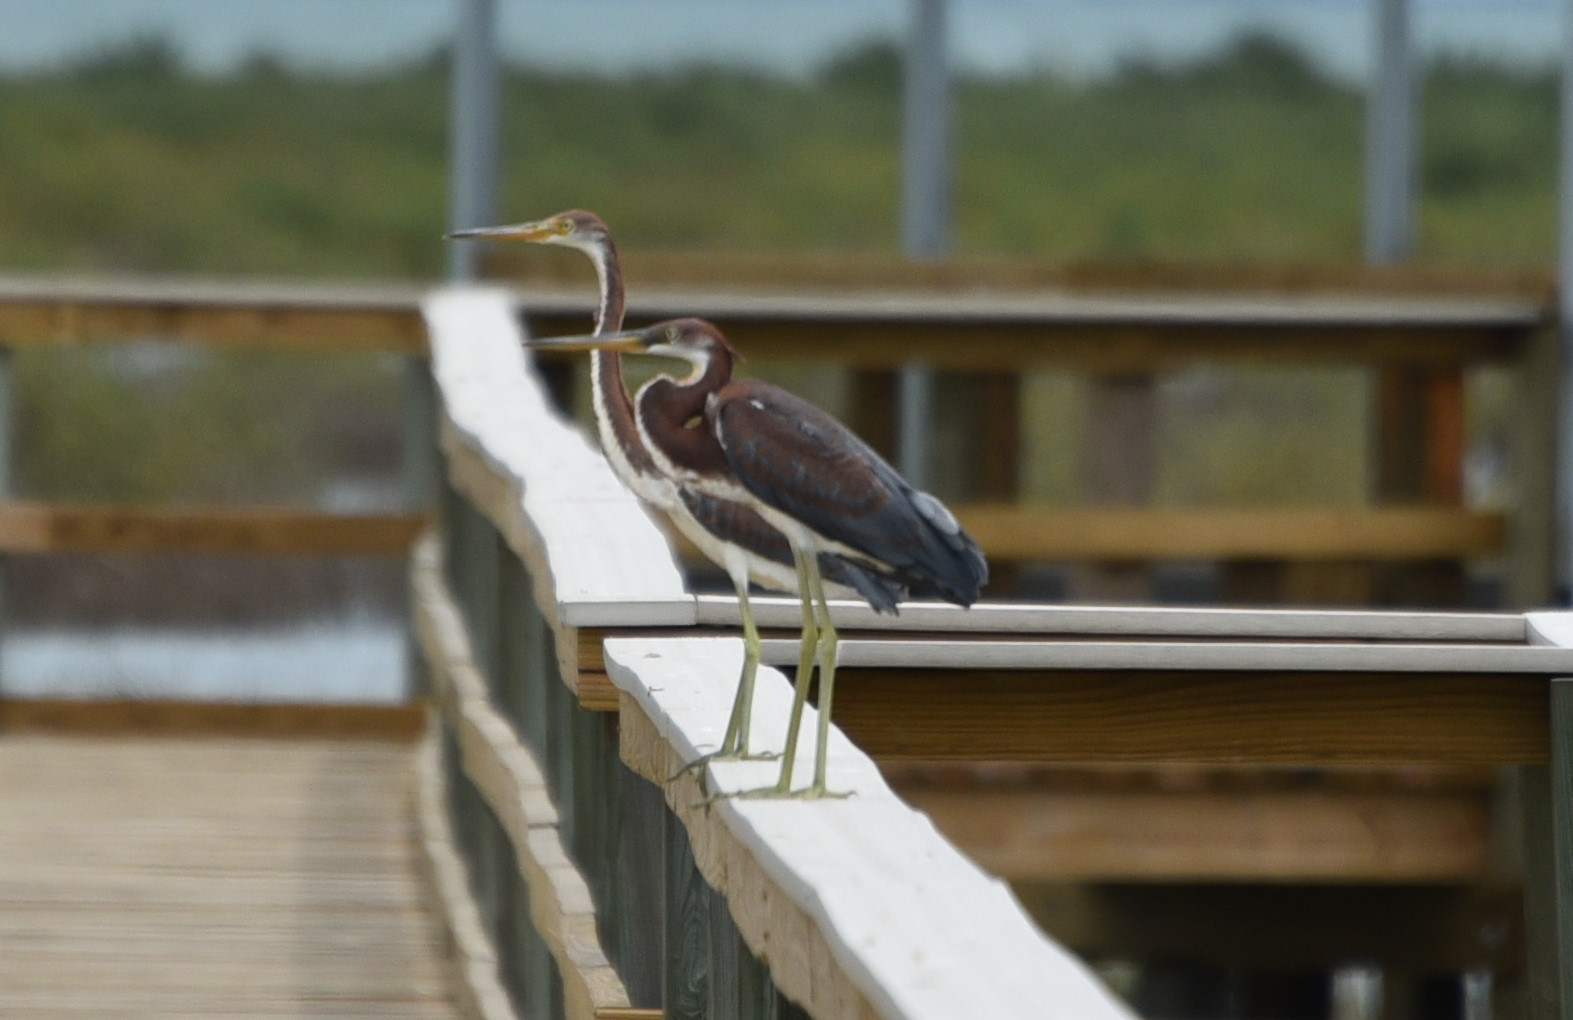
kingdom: Animalia
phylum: Chordata
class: Aves
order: Pelecaniformes
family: Ardeidae
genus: Egretta
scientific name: Egretta tricolor
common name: Tricolored heron
